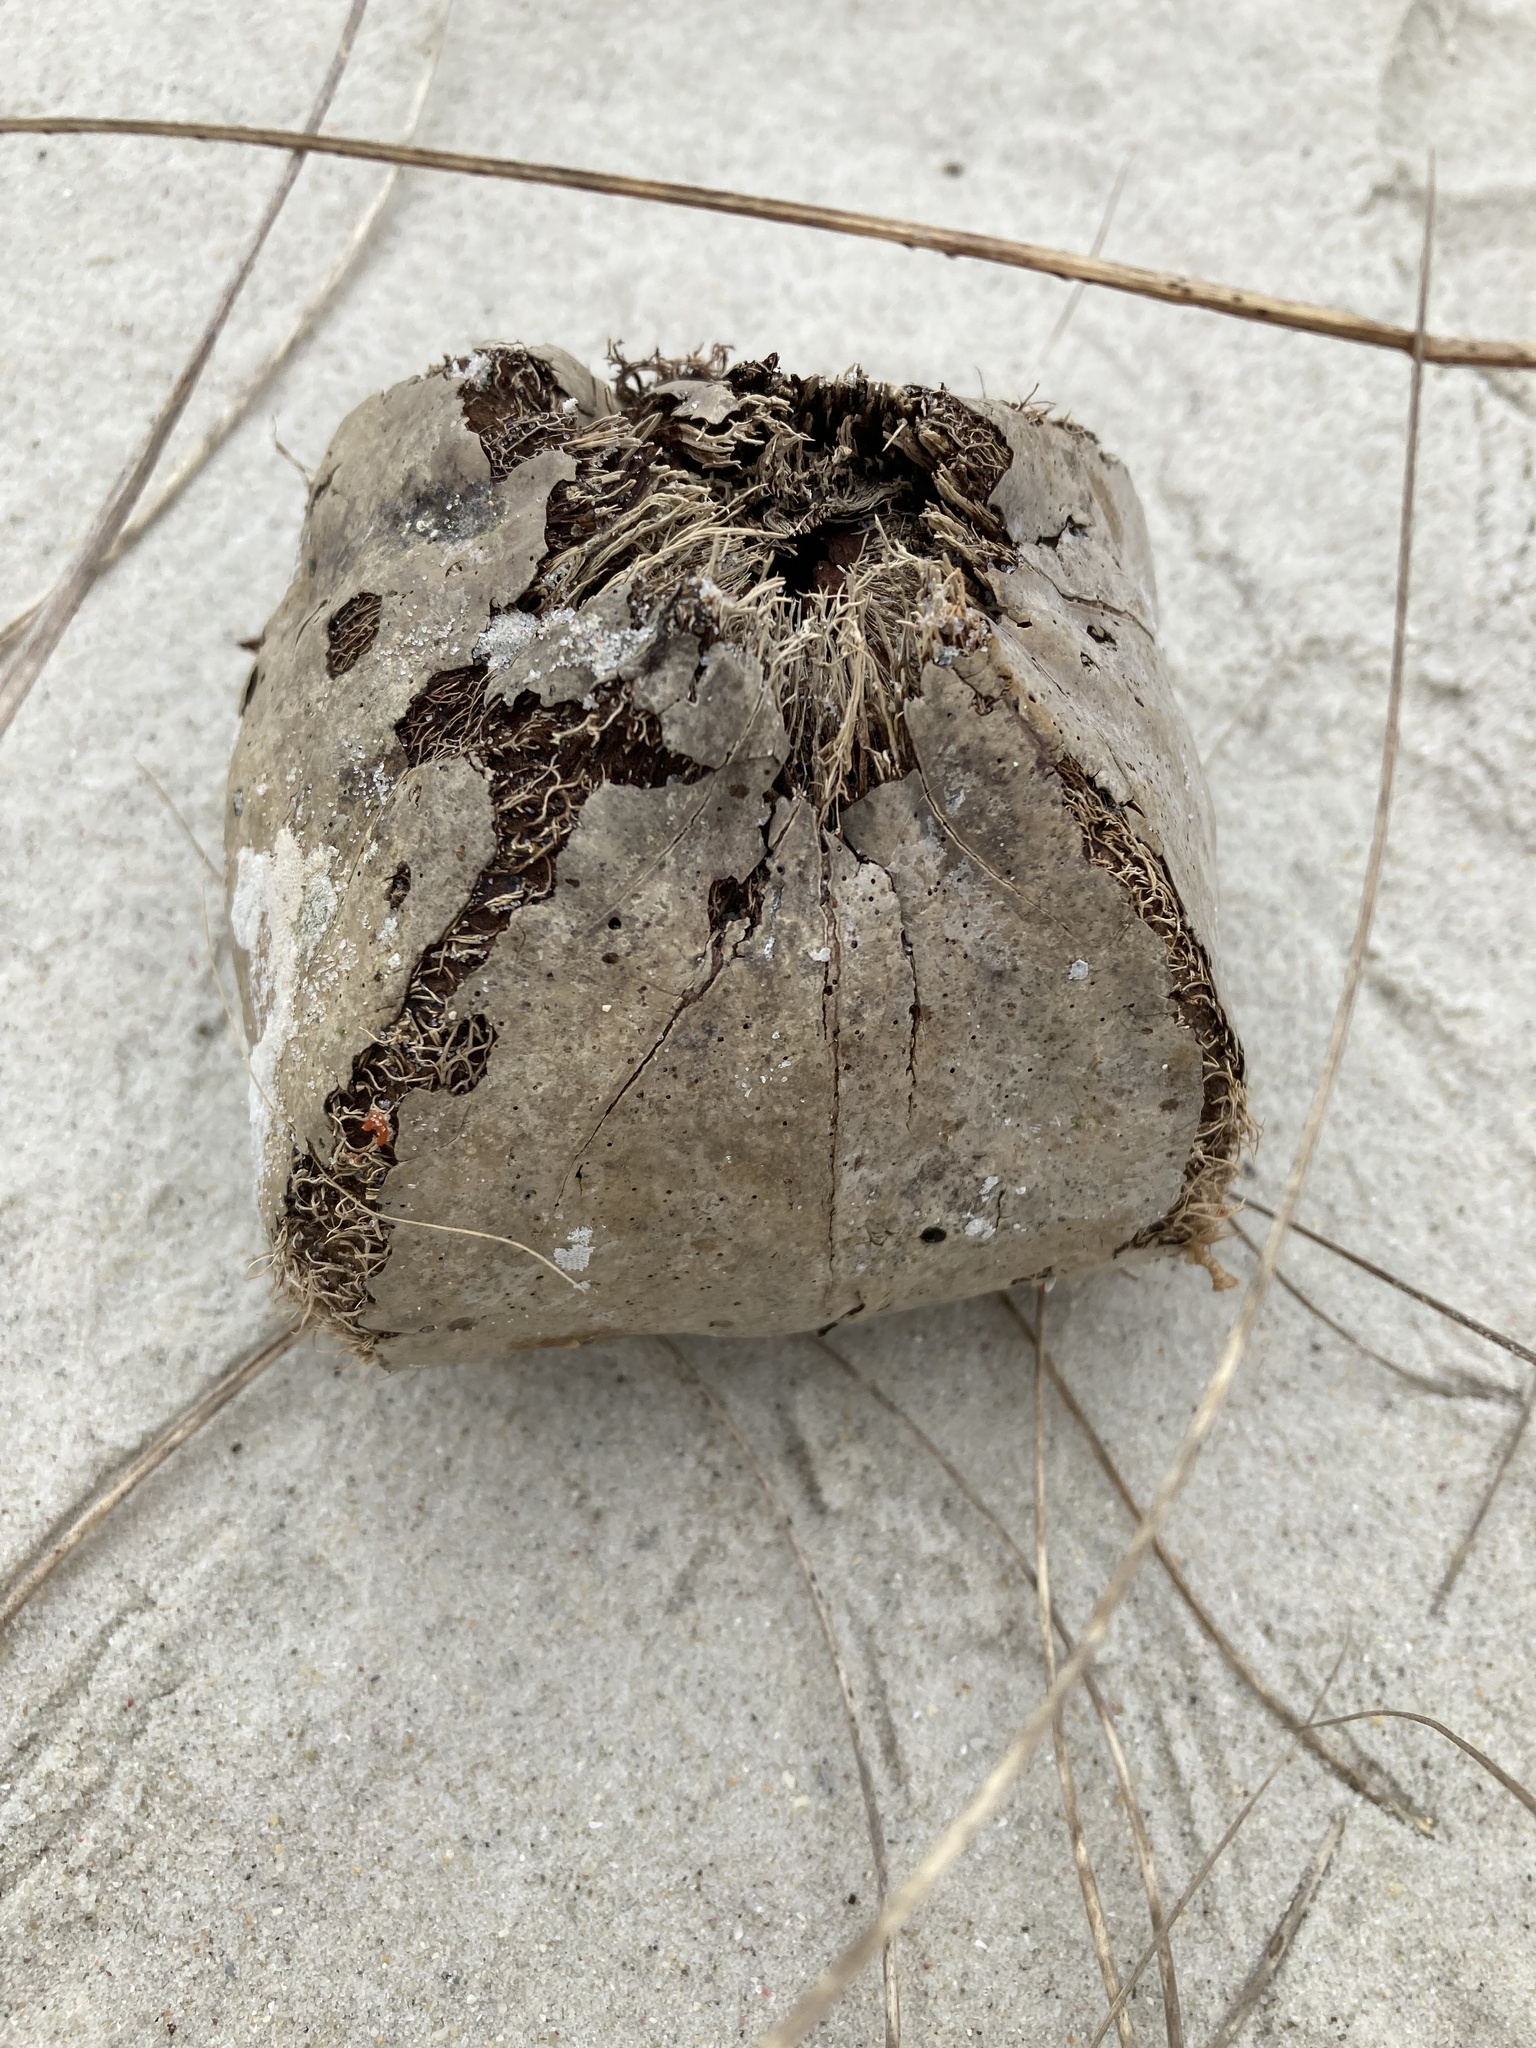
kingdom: Plantae
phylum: Tracheophyta
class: Magnoliopsida
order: Ericales
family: Lecythidaceae
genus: Barringtonia
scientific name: Barringtonia asiatica
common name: Mango-pine
